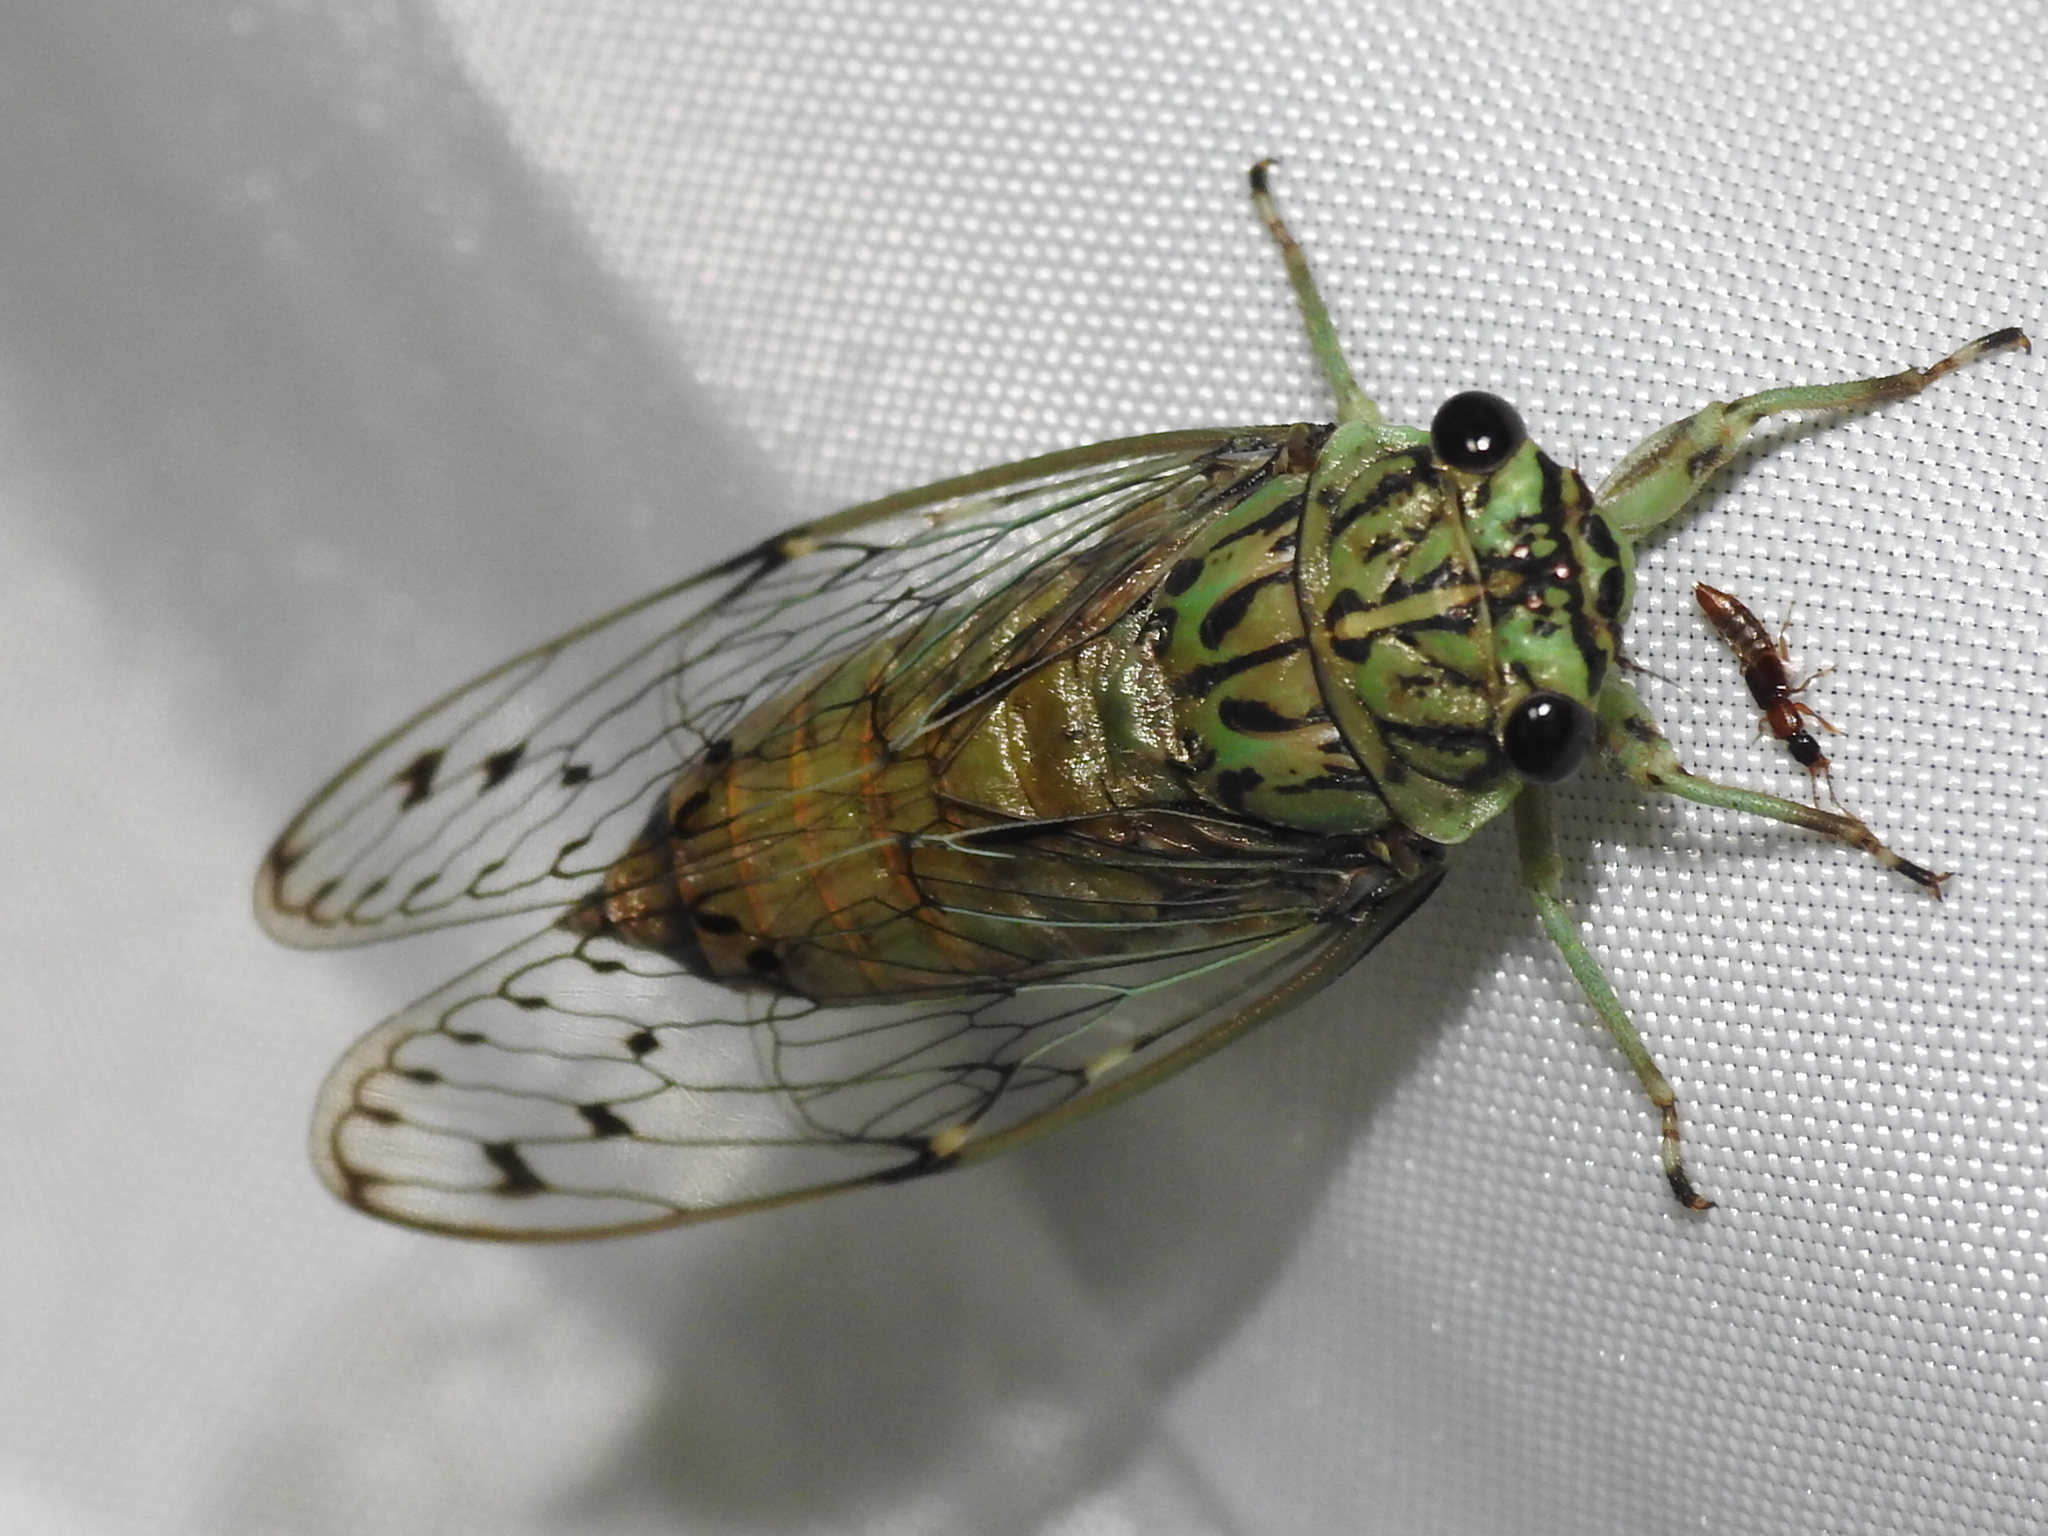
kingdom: Animalia
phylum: Arthropoda
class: Insecta
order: Hemiptera
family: Cicadidae
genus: Neocicada
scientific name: Neocicada hieroglyphica
